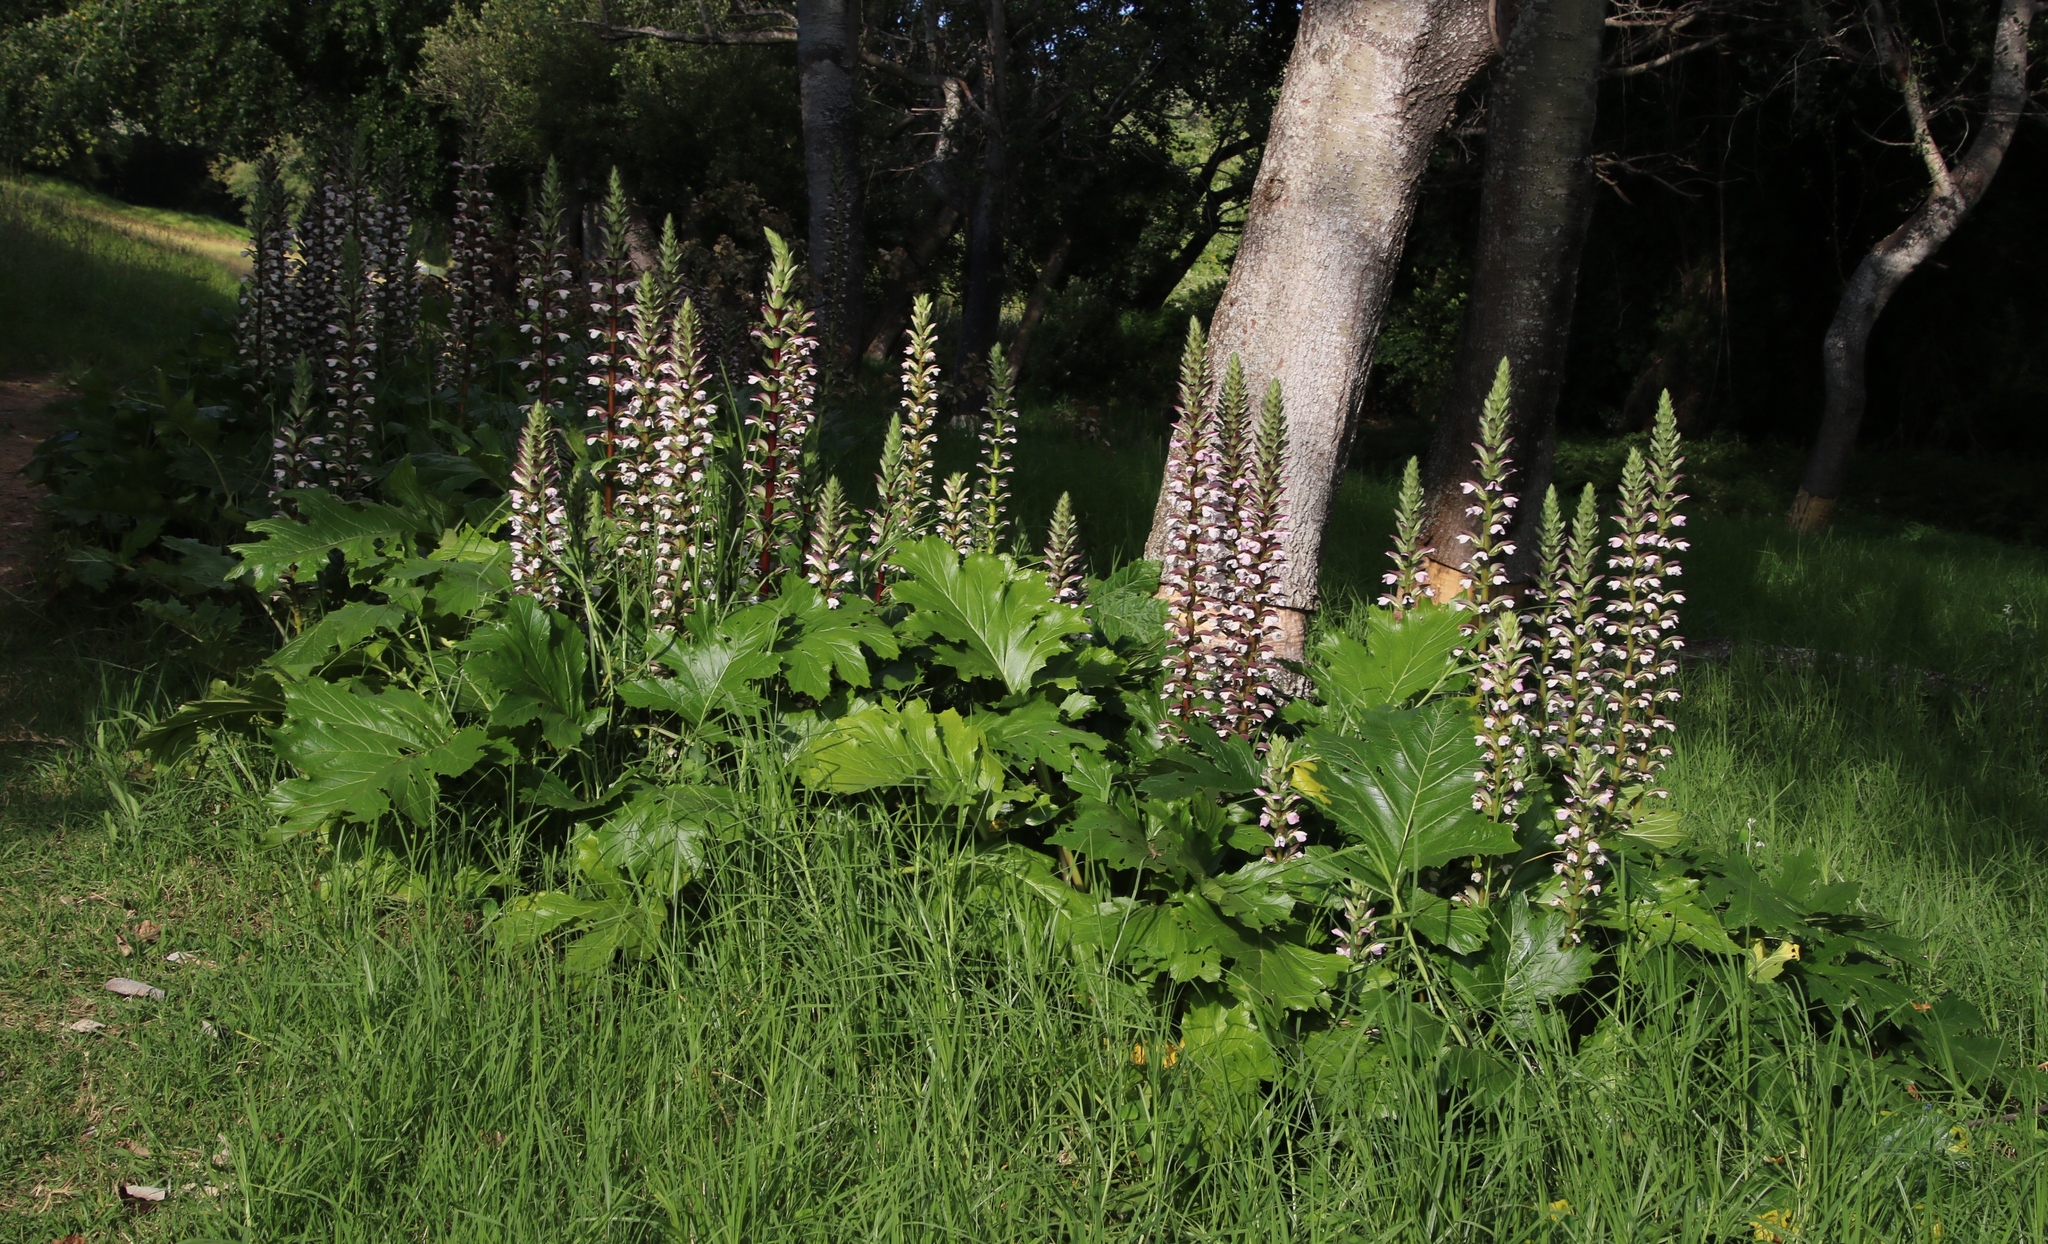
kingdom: Plantae
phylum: Tracheophyta
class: Magnoliopsida
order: Lamiales
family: Acanthaceae
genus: Acanthus
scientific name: Acanthus mollis
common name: Bear's-breech
